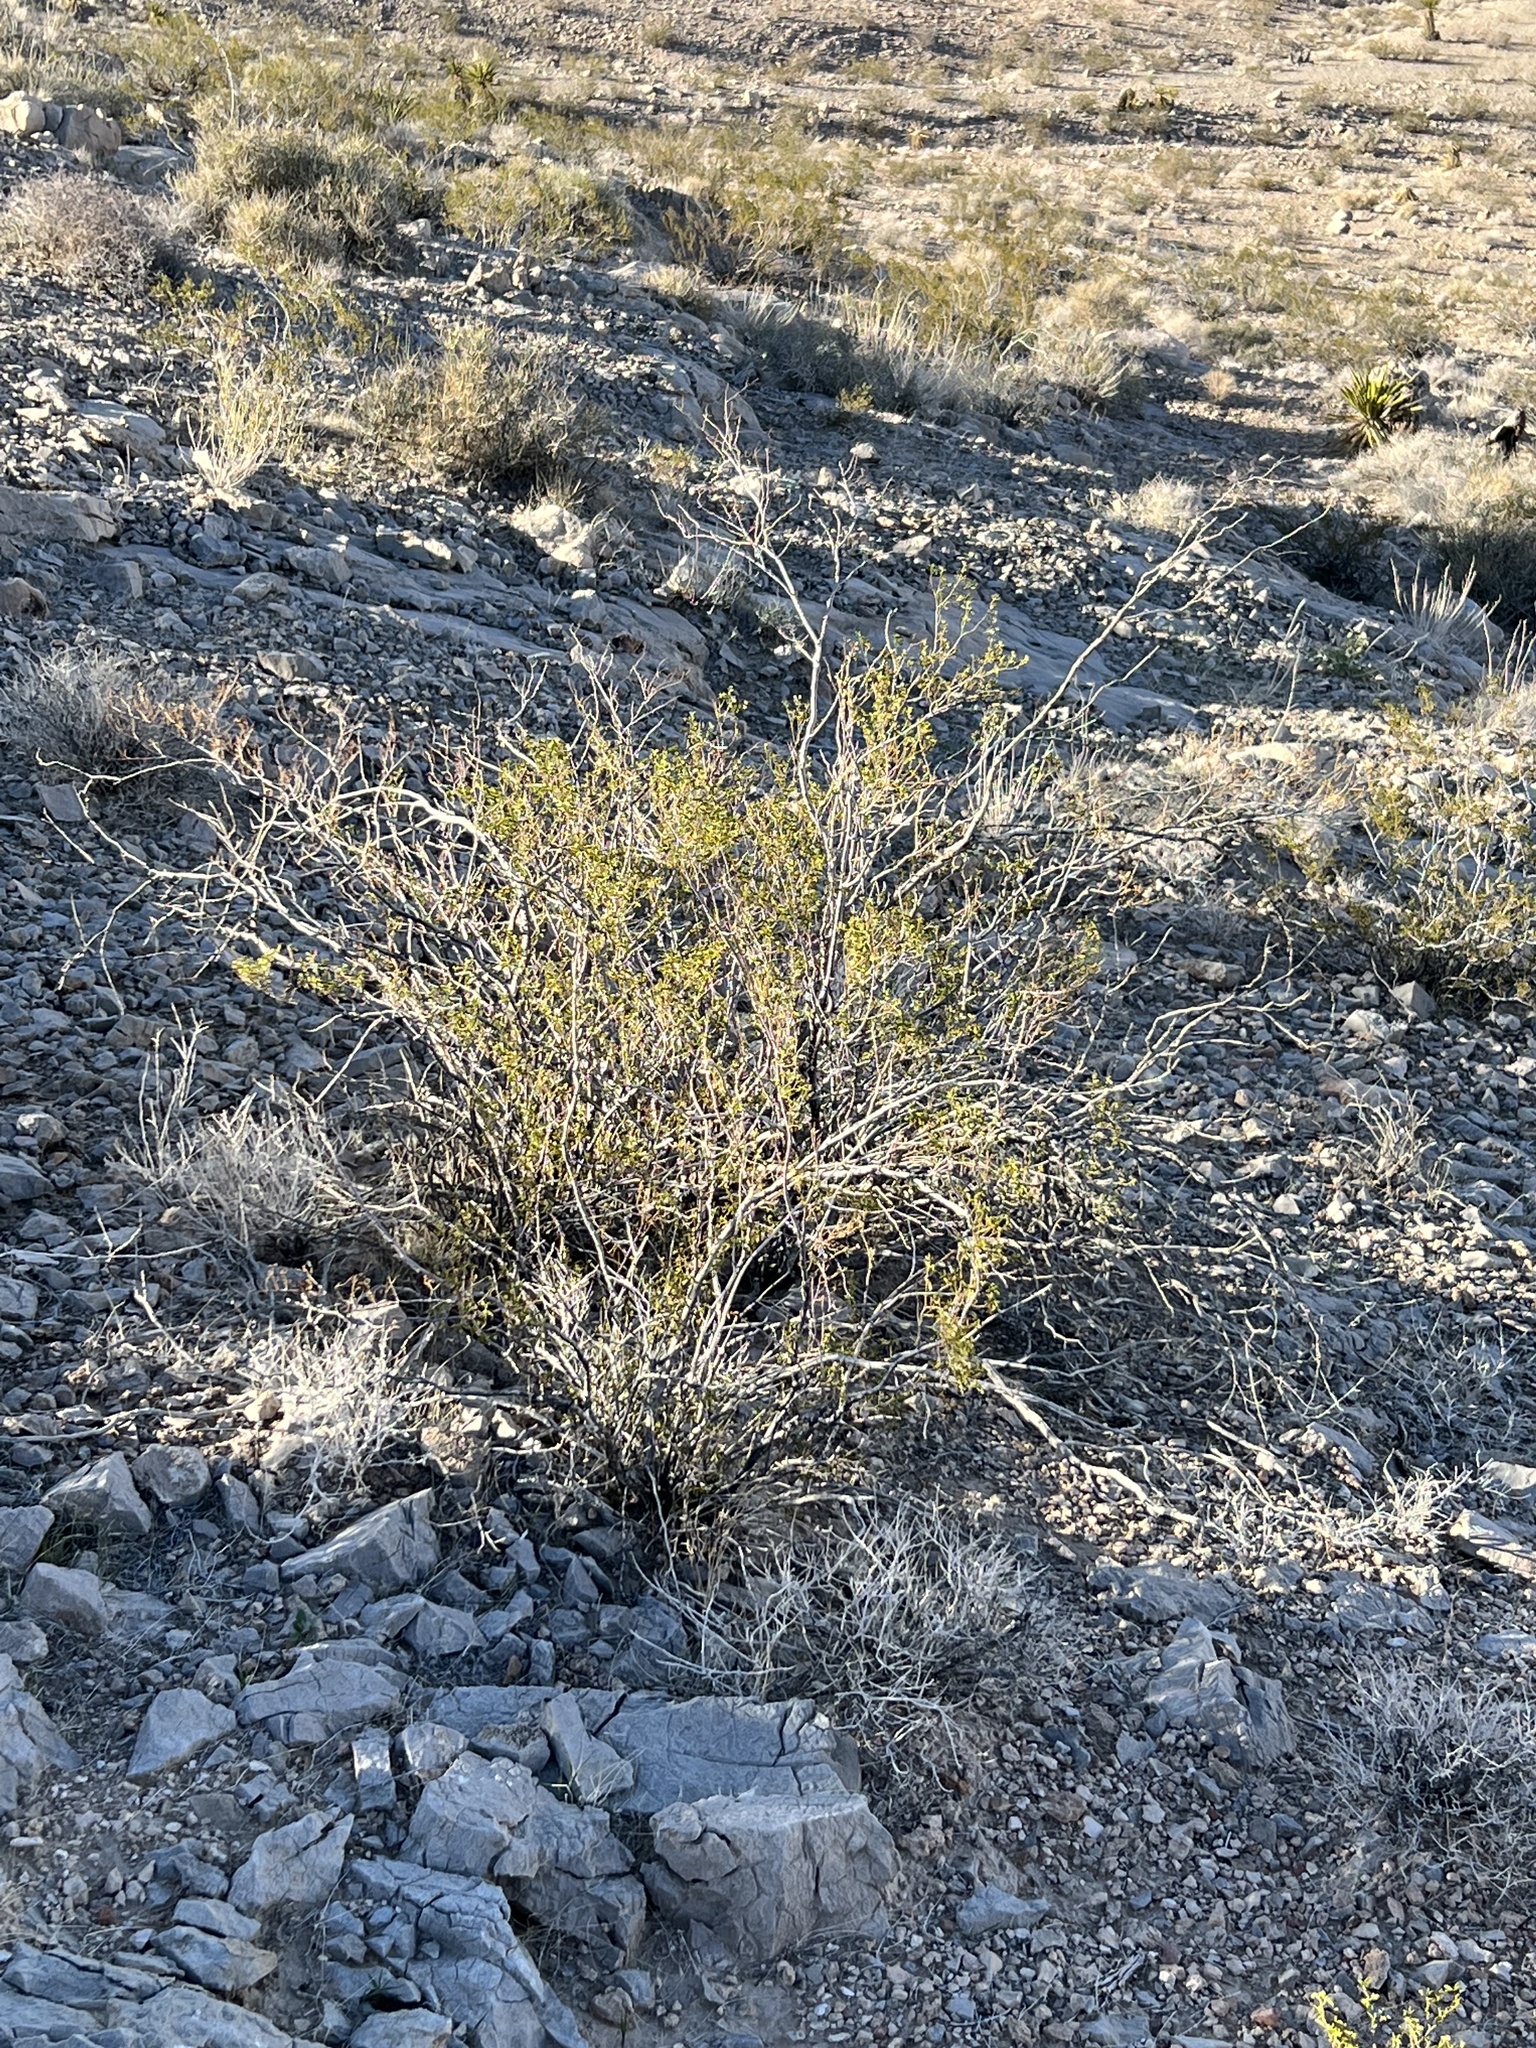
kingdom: Plantae
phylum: Tracheophyta
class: Magnoliopsida
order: Zygophyllales
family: Zygophyllaceae
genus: Larrea
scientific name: Larrea tridentata
